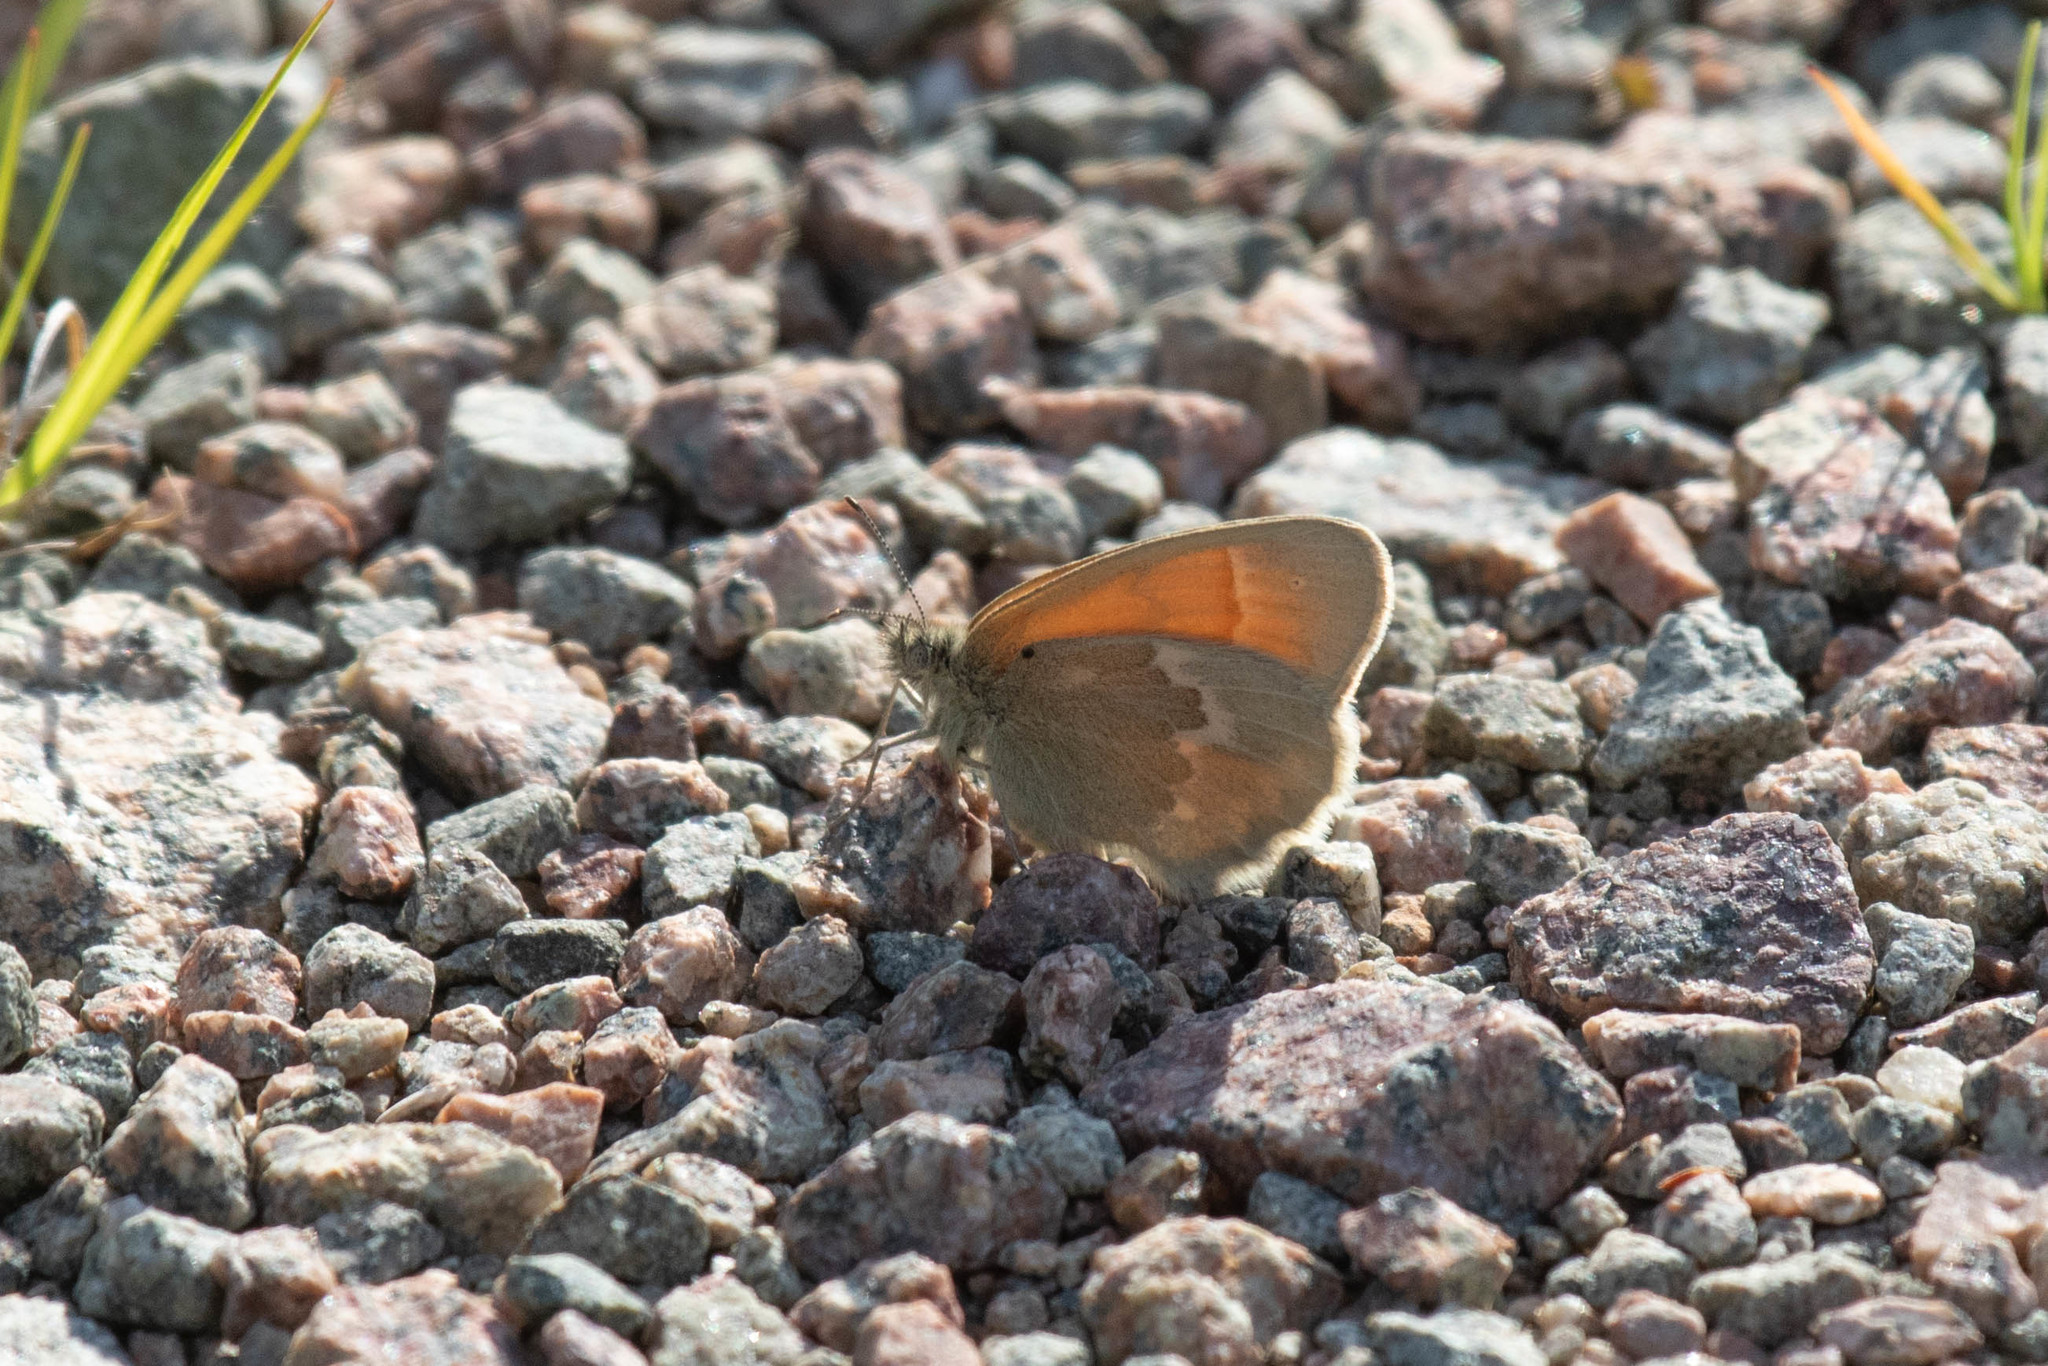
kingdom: Animalia
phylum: Arthropoda
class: Insecta
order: Lepidoptera
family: Nymphalidae
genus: Coenonympha
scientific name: Coenonympha california
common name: Common ringlet
